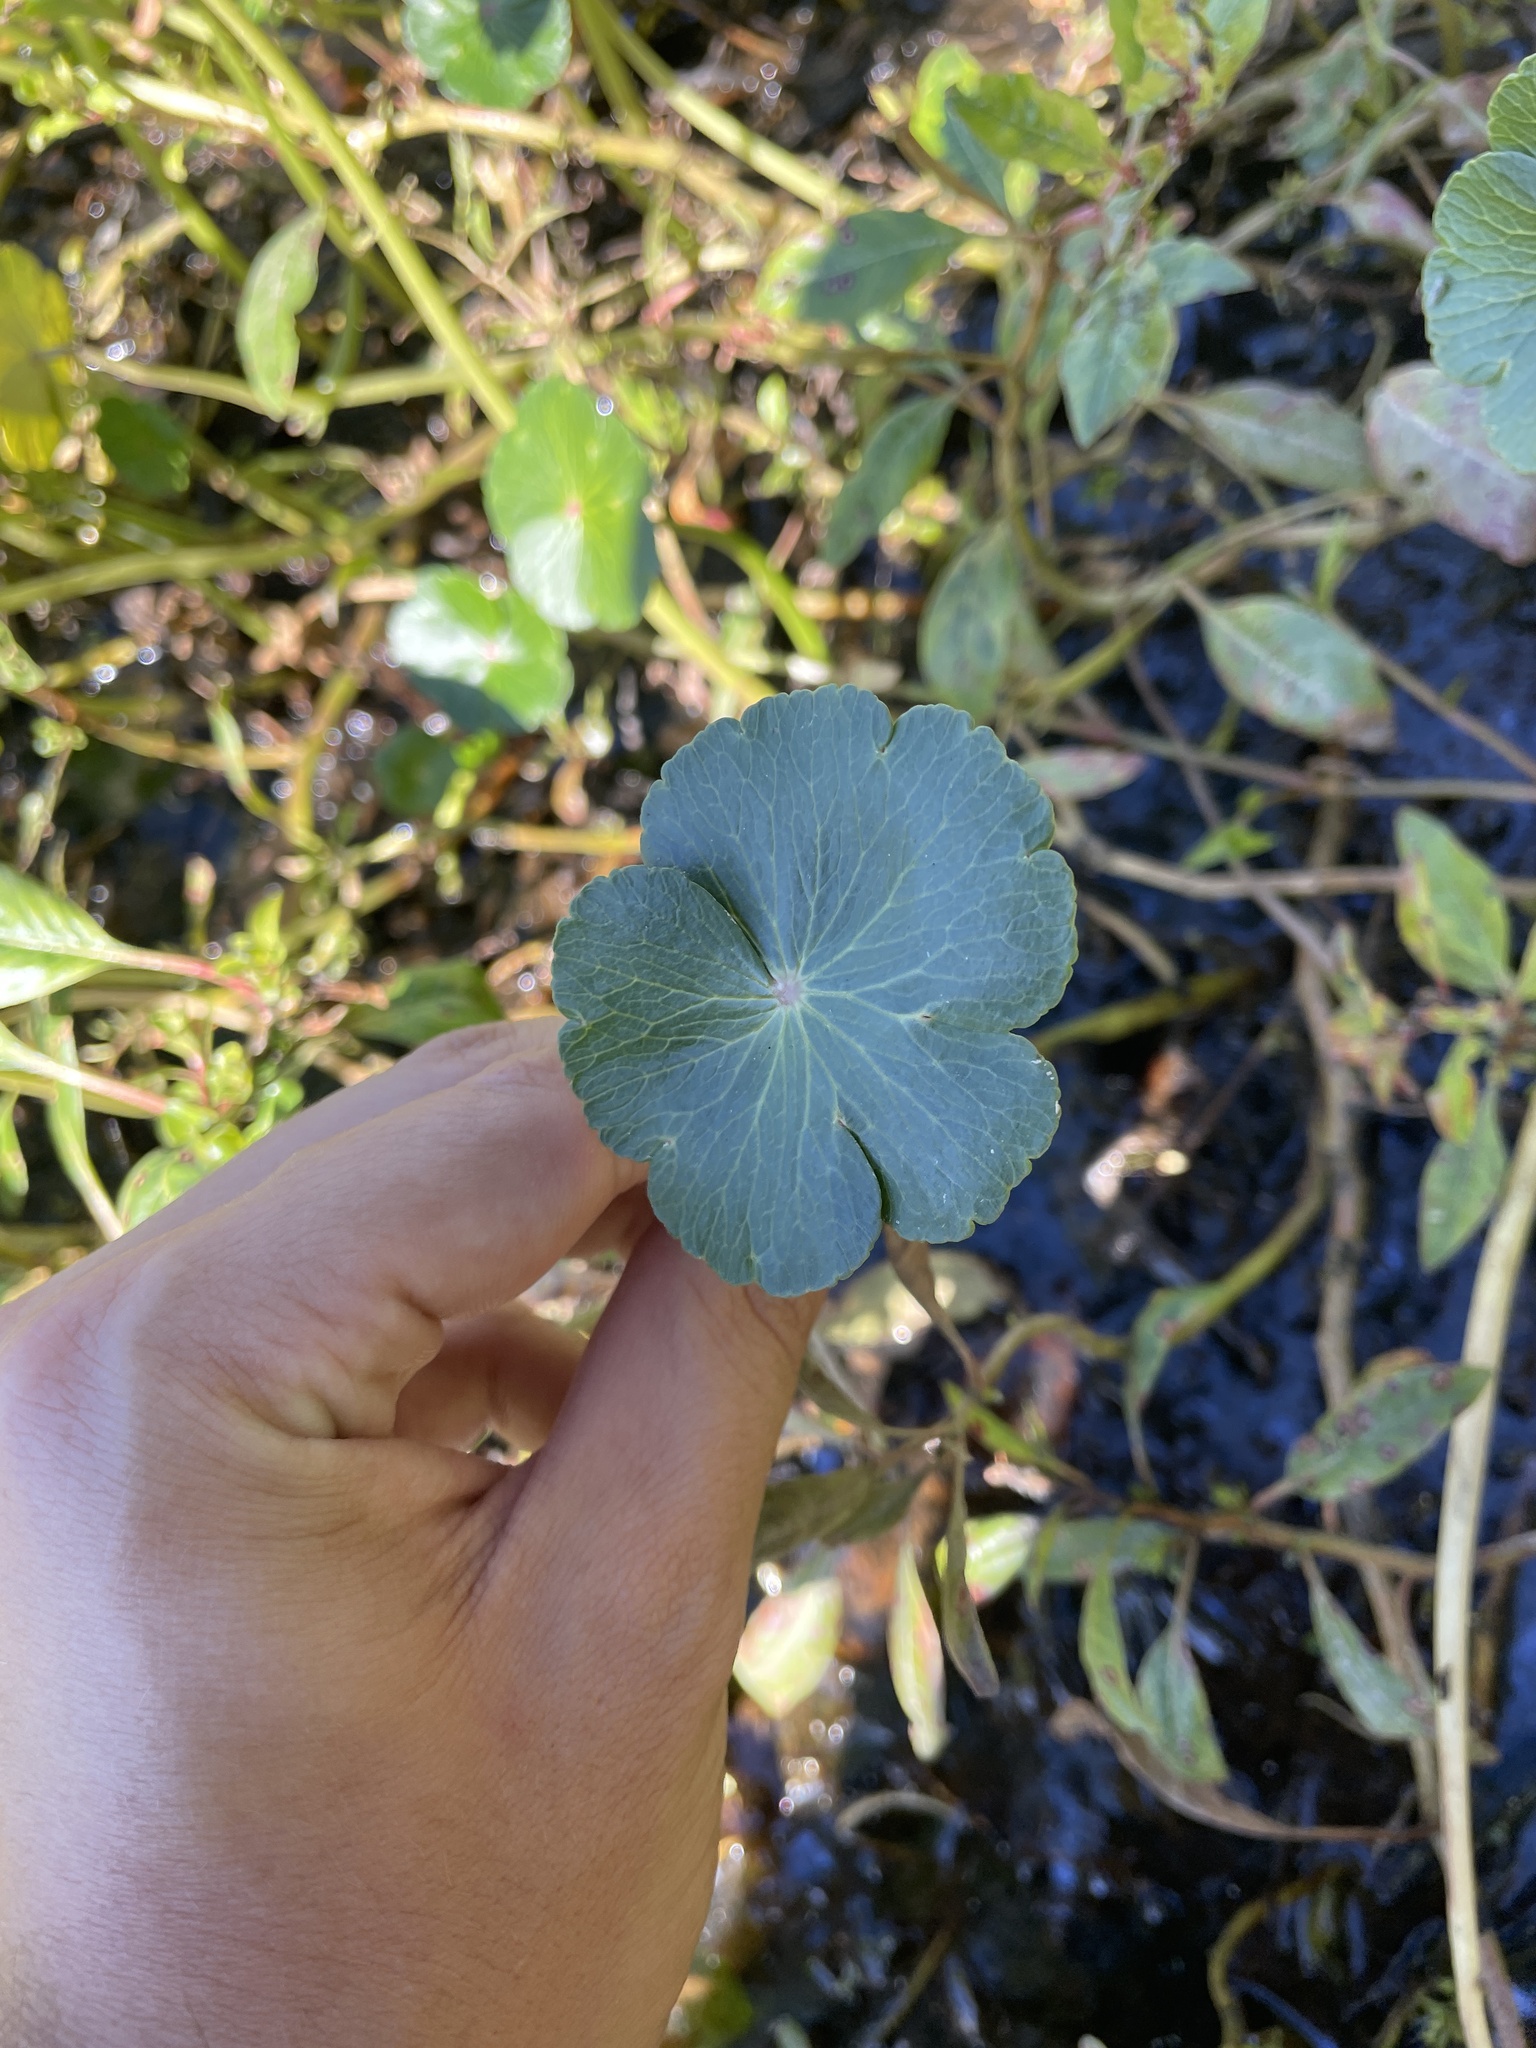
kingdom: Plantae
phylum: Tracheophyta
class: Magnoliopsida
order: Apiales
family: Araliaceae
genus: Hydrocotyle
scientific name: Hydrocotyle ranunculoides
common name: Floating pennywort
